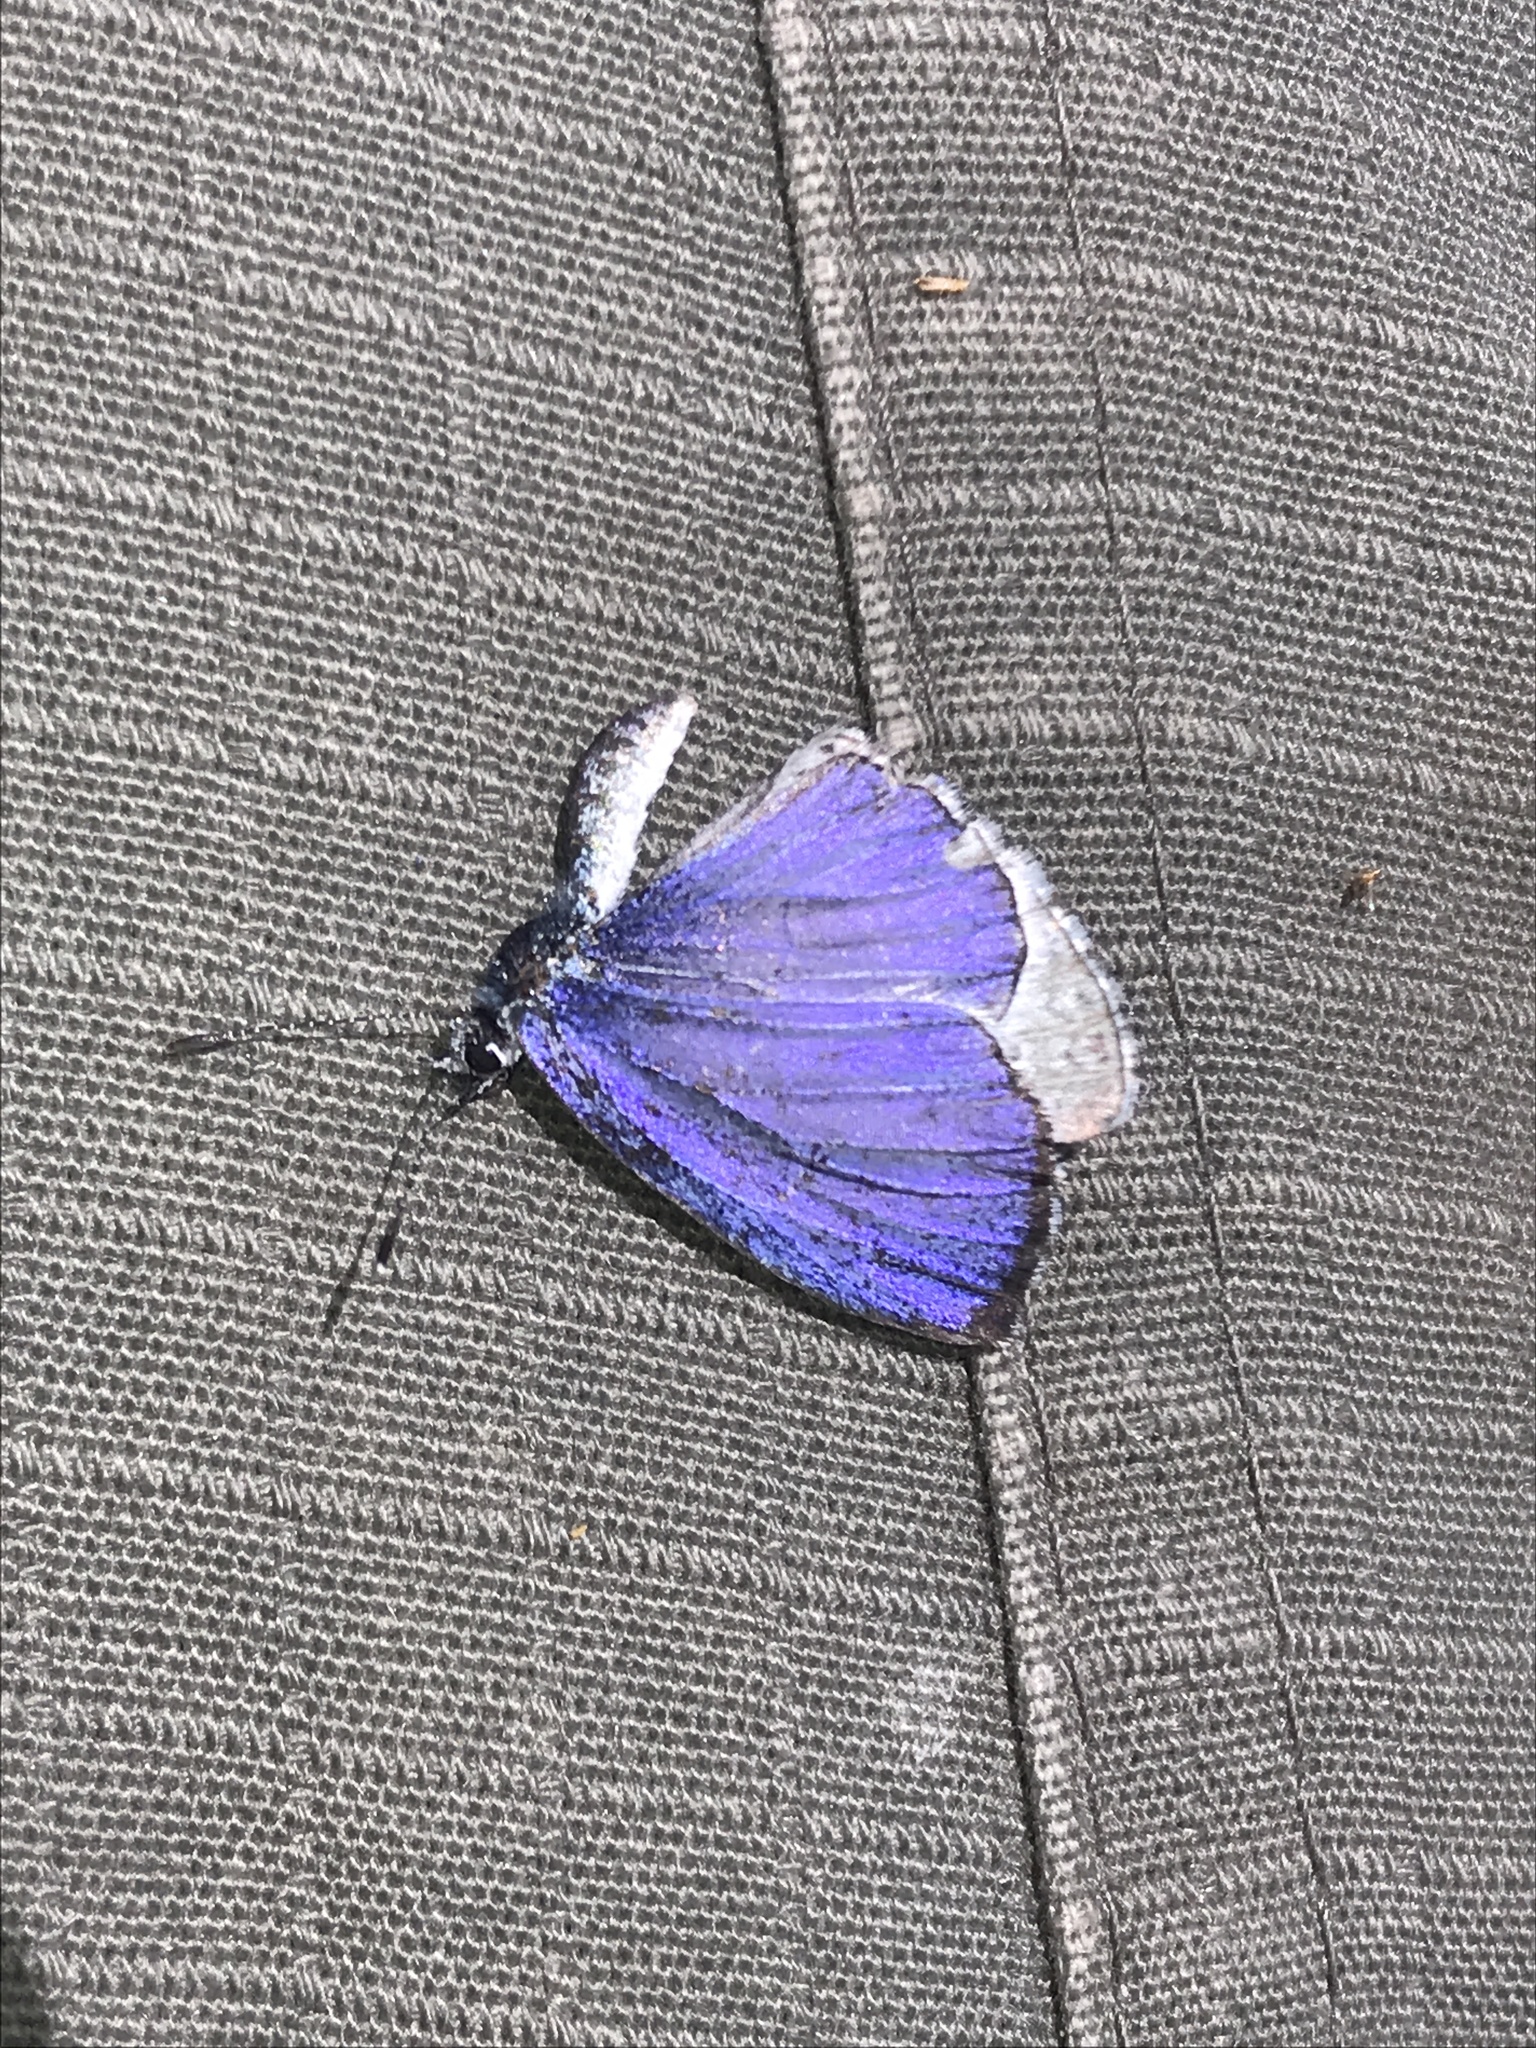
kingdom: Animalia
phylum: Arthropoda
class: Insecta
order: Lepidoptera
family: Lycaenidae
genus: Celastrina
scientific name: Celastrina ladon
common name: Spring azure
